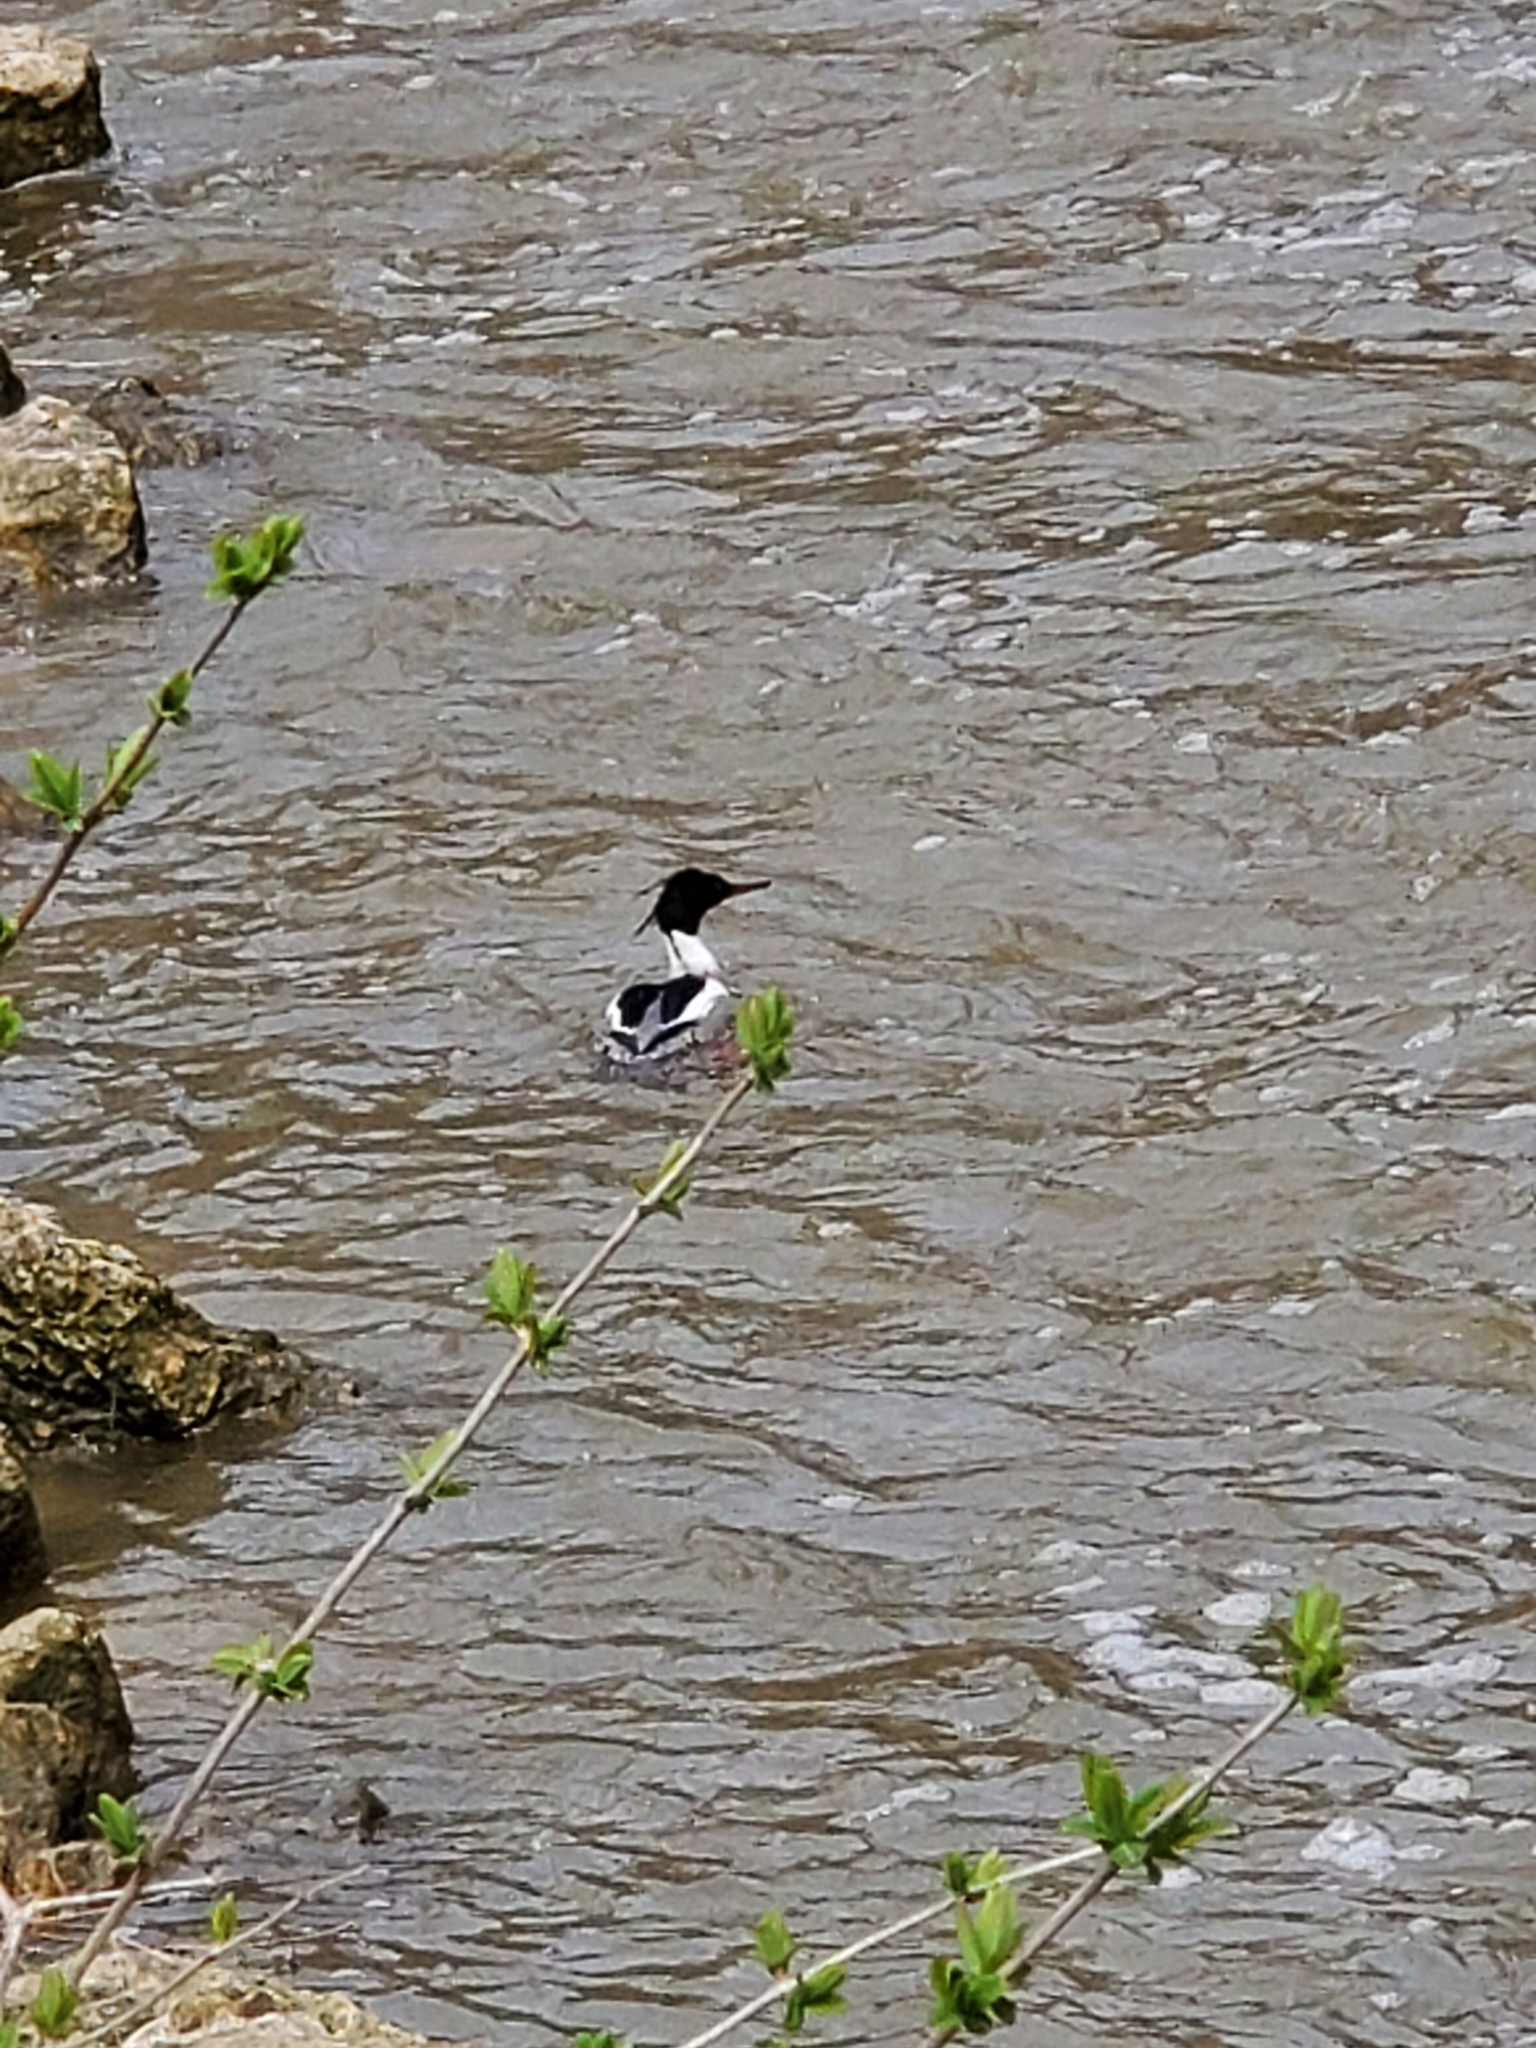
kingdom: Animalia
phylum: Chordata
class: Aves
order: Anseriformes
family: Anatidae
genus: Mergus
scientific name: Mergus serrator
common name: Red-breasted merganser
